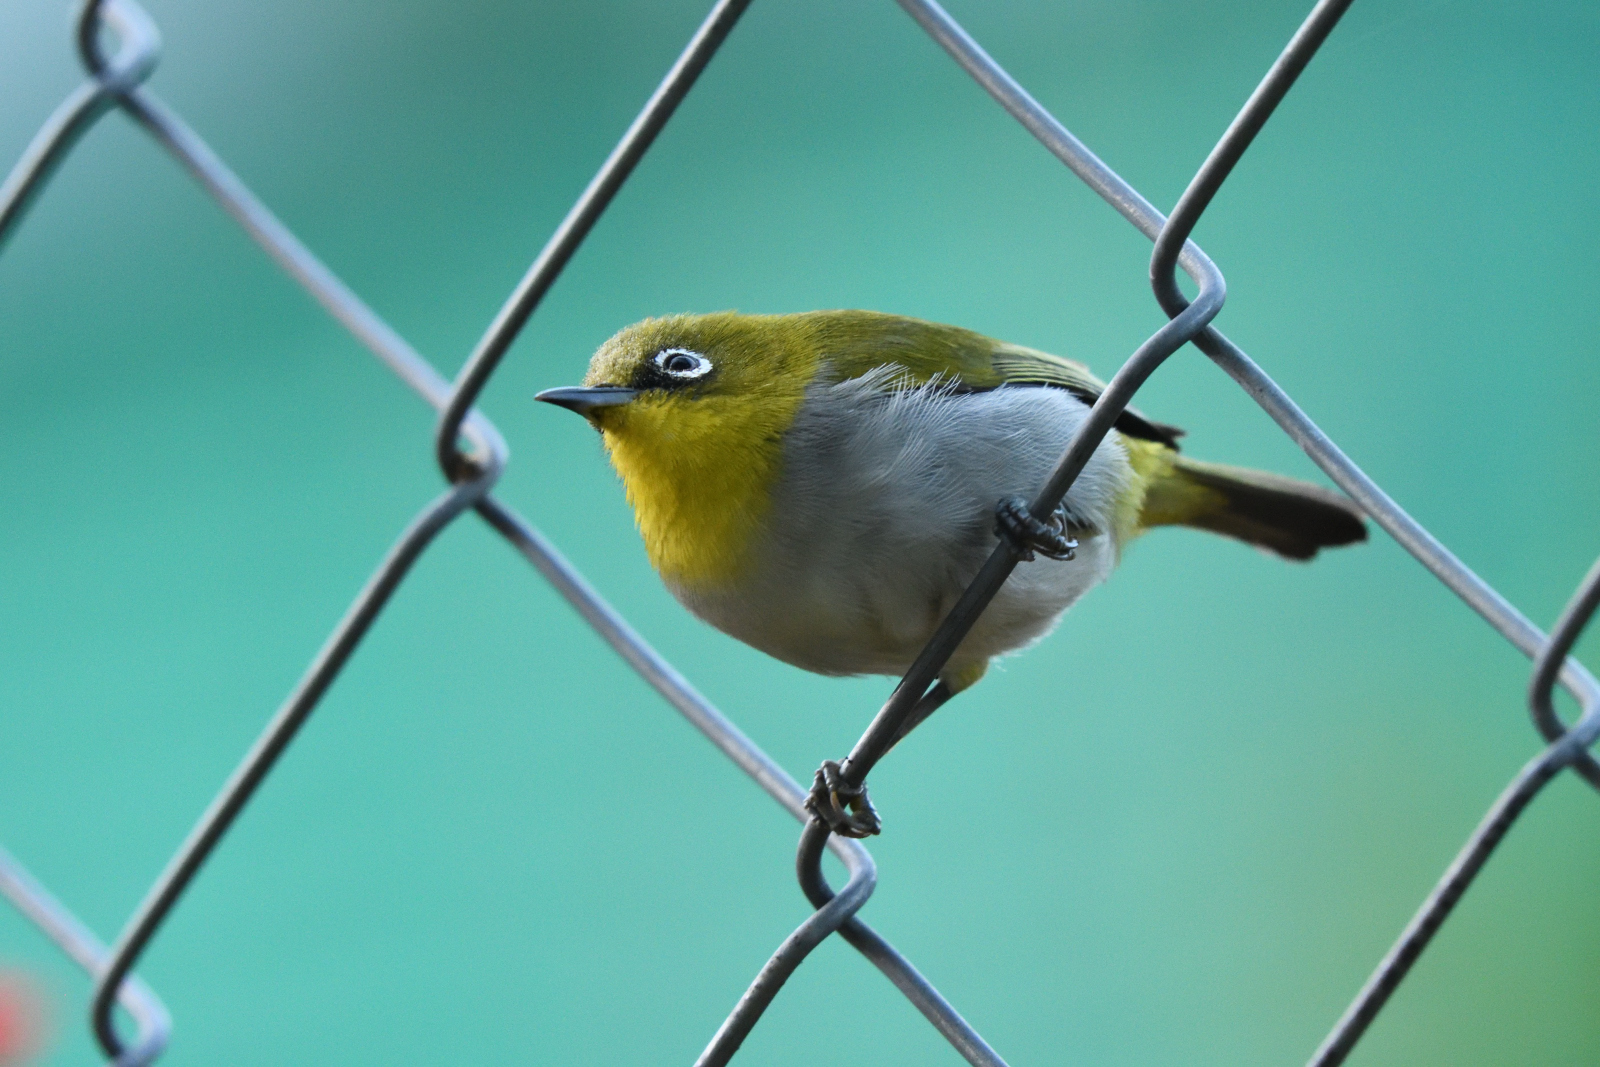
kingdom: Animalia
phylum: Chordata
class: Aves
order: Passeriformes
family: Zosteropidae
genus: Zosterops
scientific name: Zosterops palpebrosus
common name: Oriental white-eye
